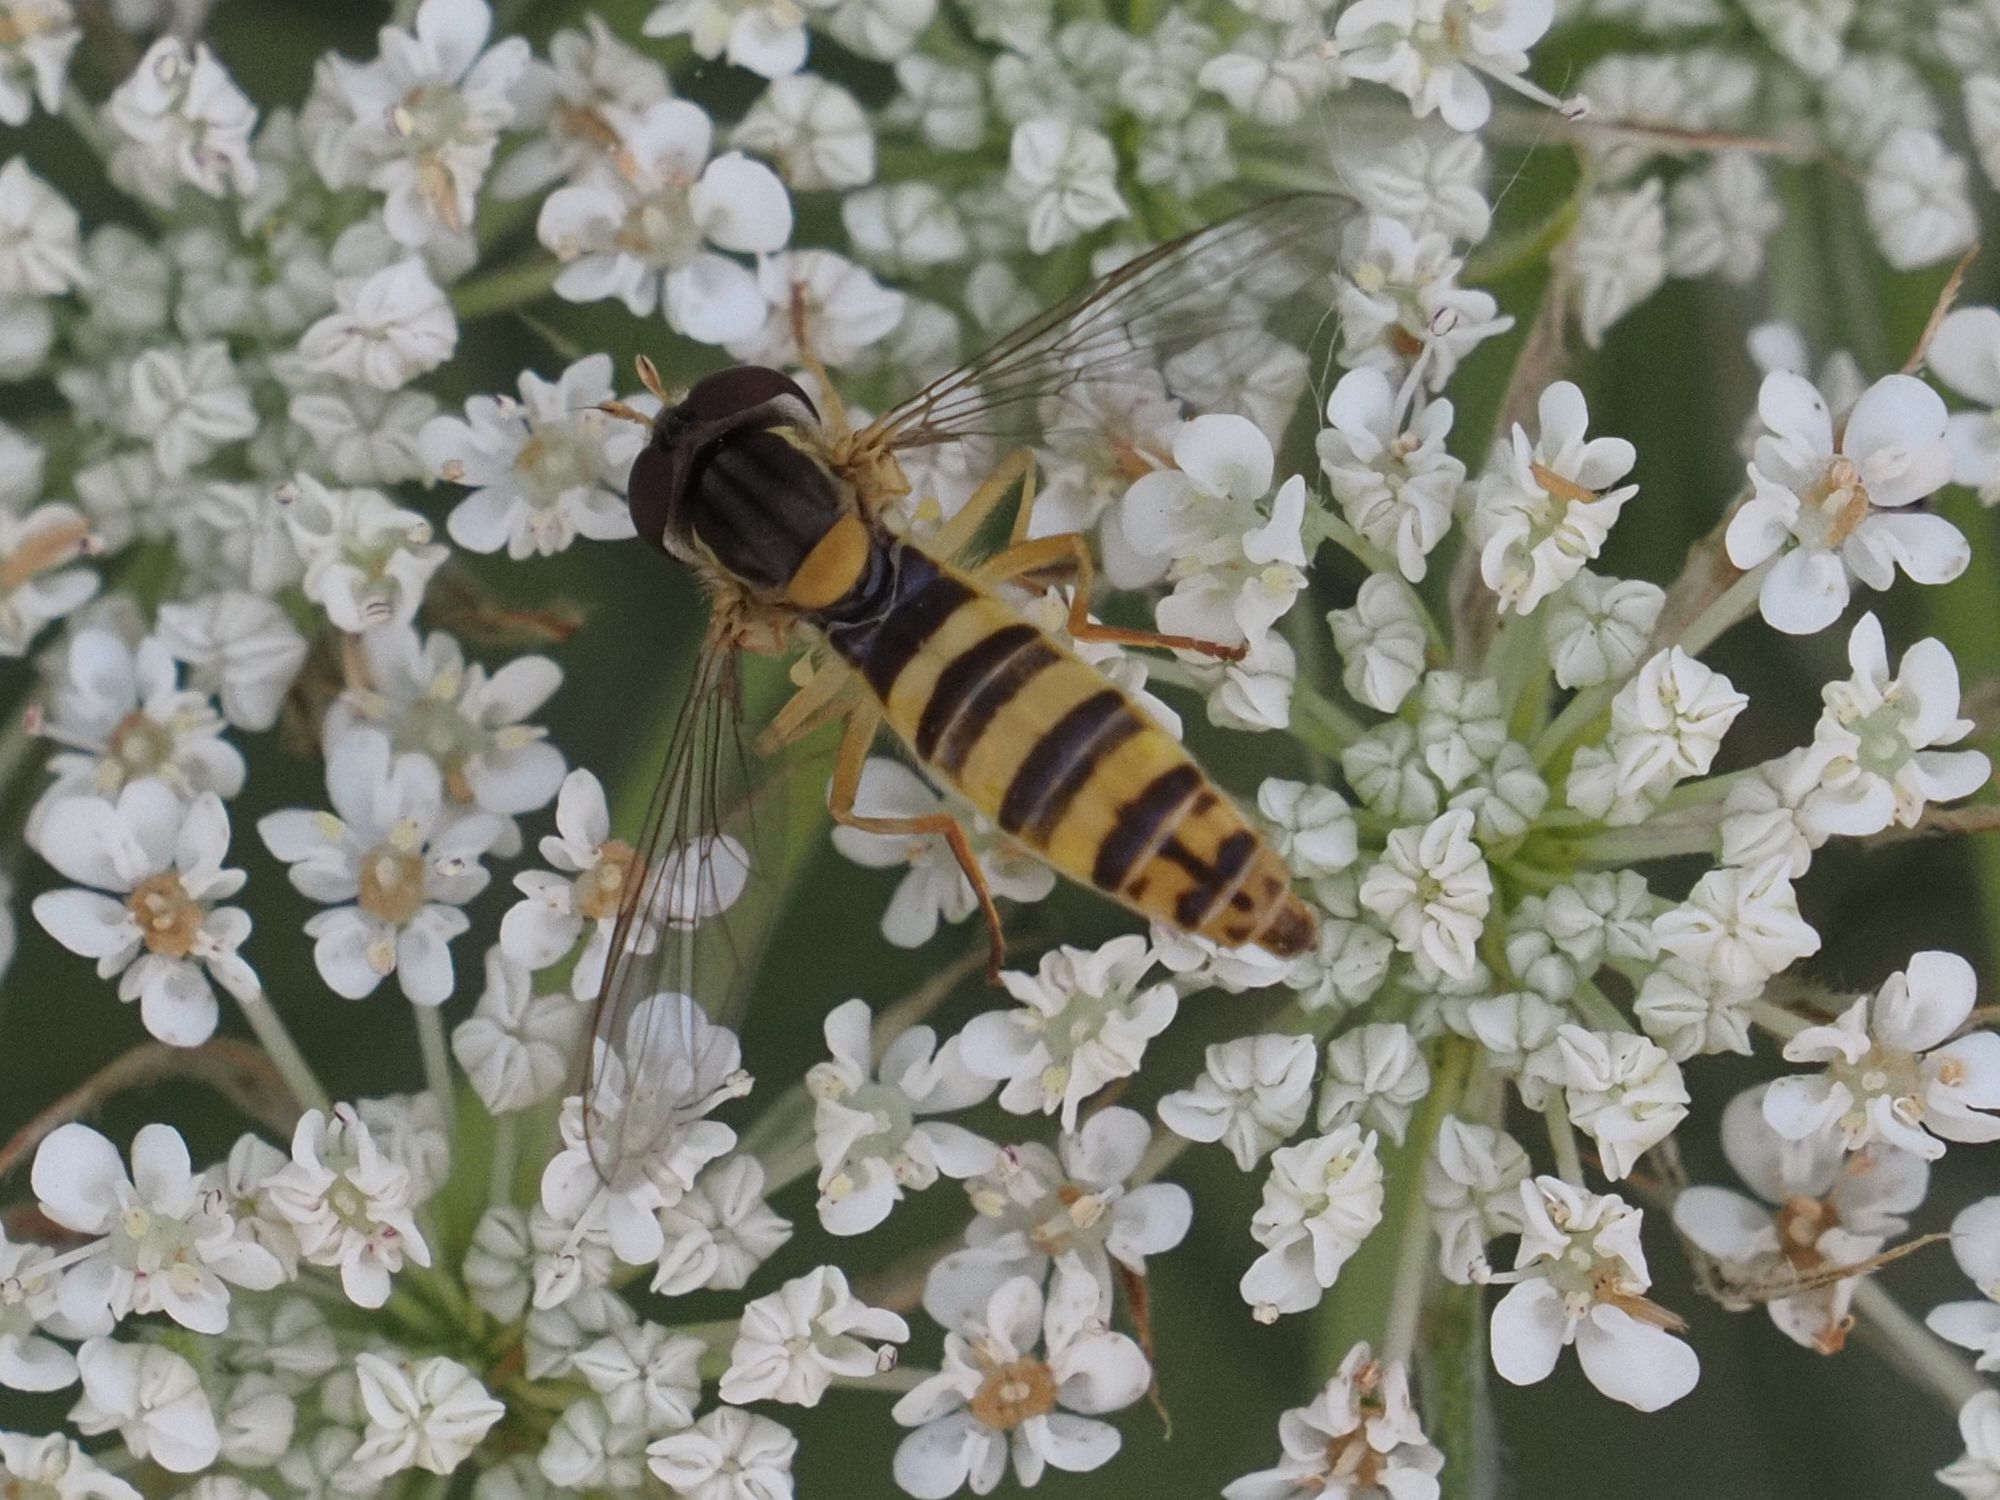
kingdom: Animalia
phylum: Arthropoda
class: Insecta
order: Diptera
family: Syrphidae
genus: Sphaerophoria
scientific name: Sphaerophoria
